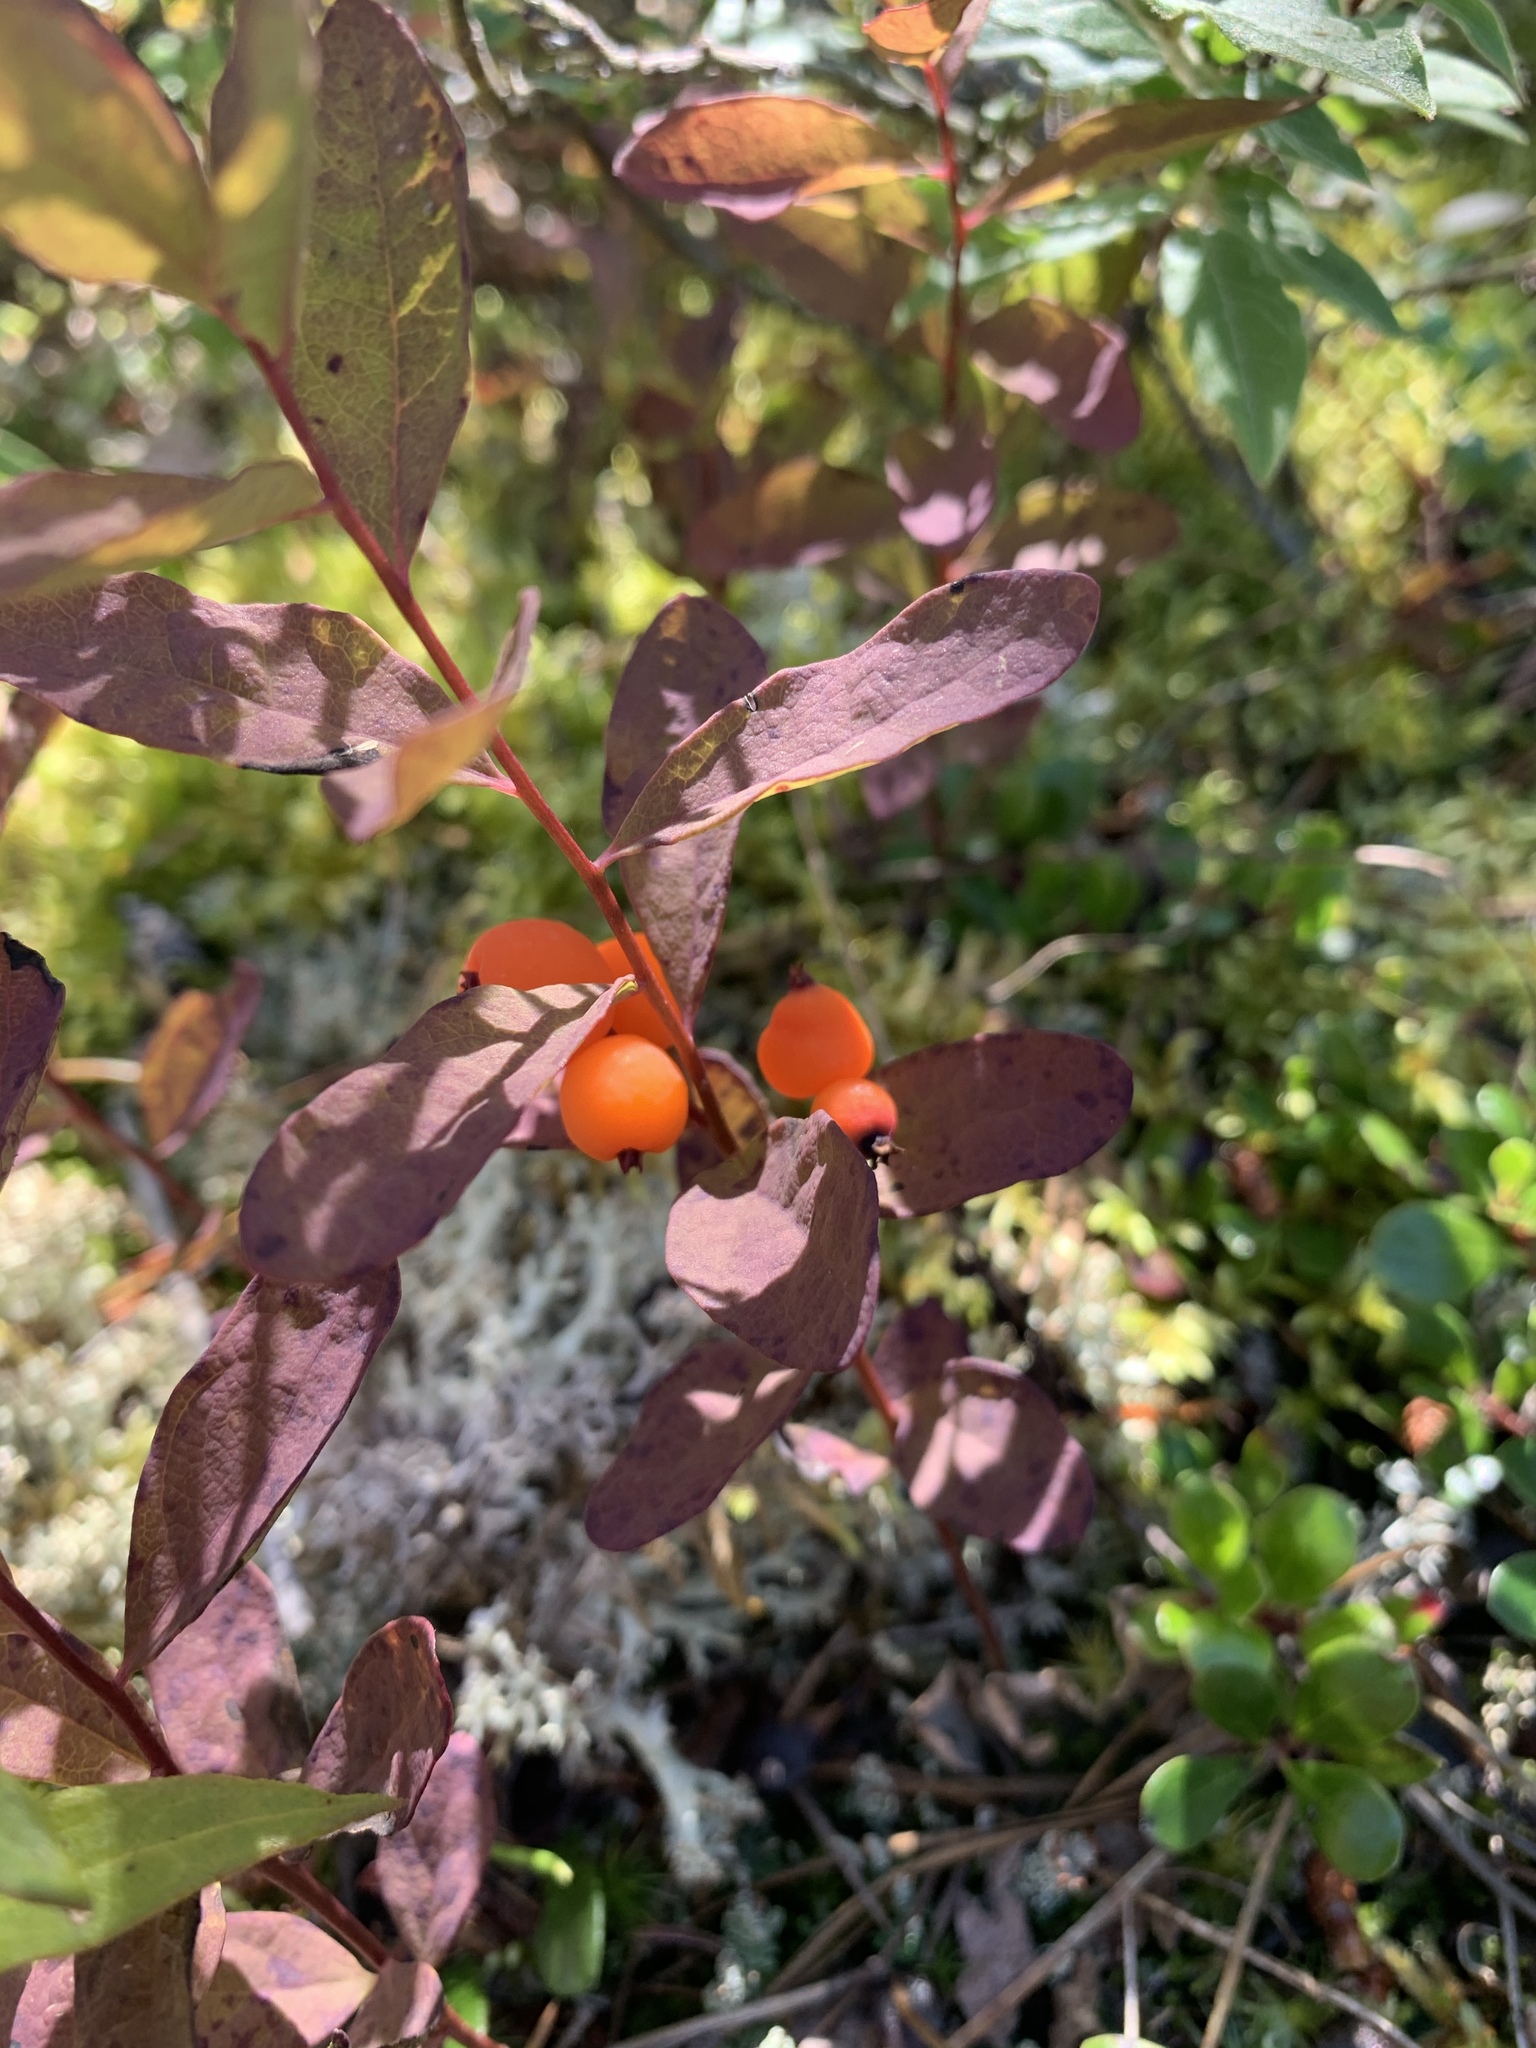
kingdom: Plantae
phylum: Tracheophyta
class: Magnoliopsida
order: Santalales
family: Comandraceae
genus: Geocaulon
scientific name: Geocaulon lividum
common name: Earthberry
